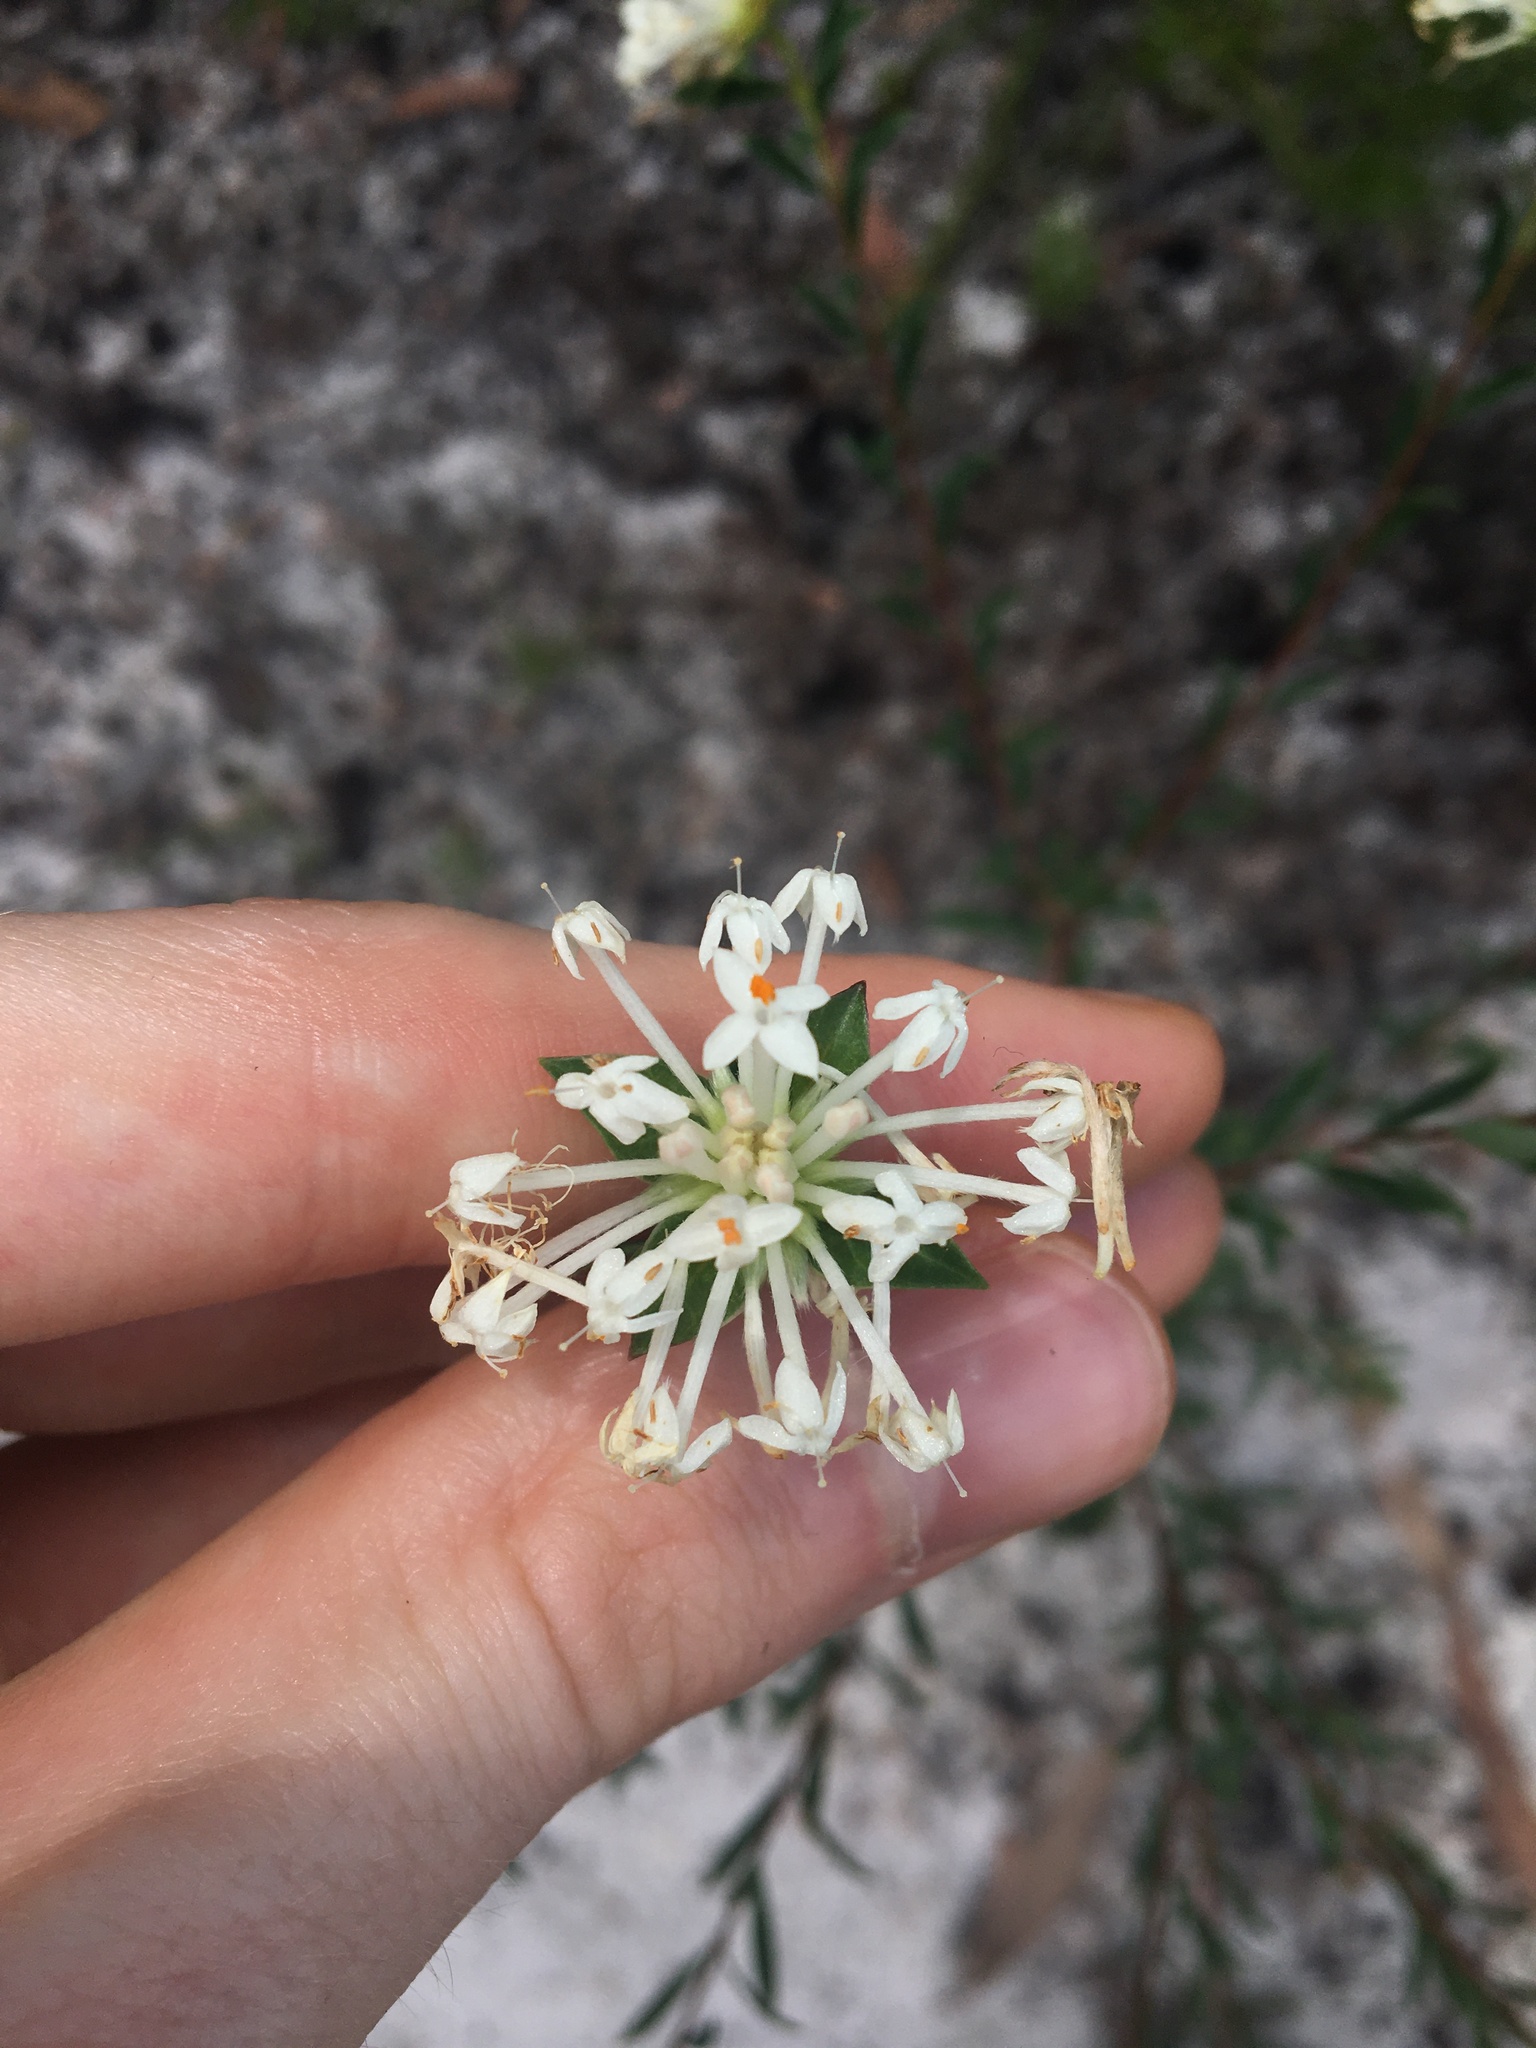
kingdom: Plantae
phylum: Tracheophyta
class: Magnoliopsida
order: Malvales
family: Thymelaeaceae
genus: Pimelea
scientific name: Pimelea linifolia
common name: Queen-of-the-bush
